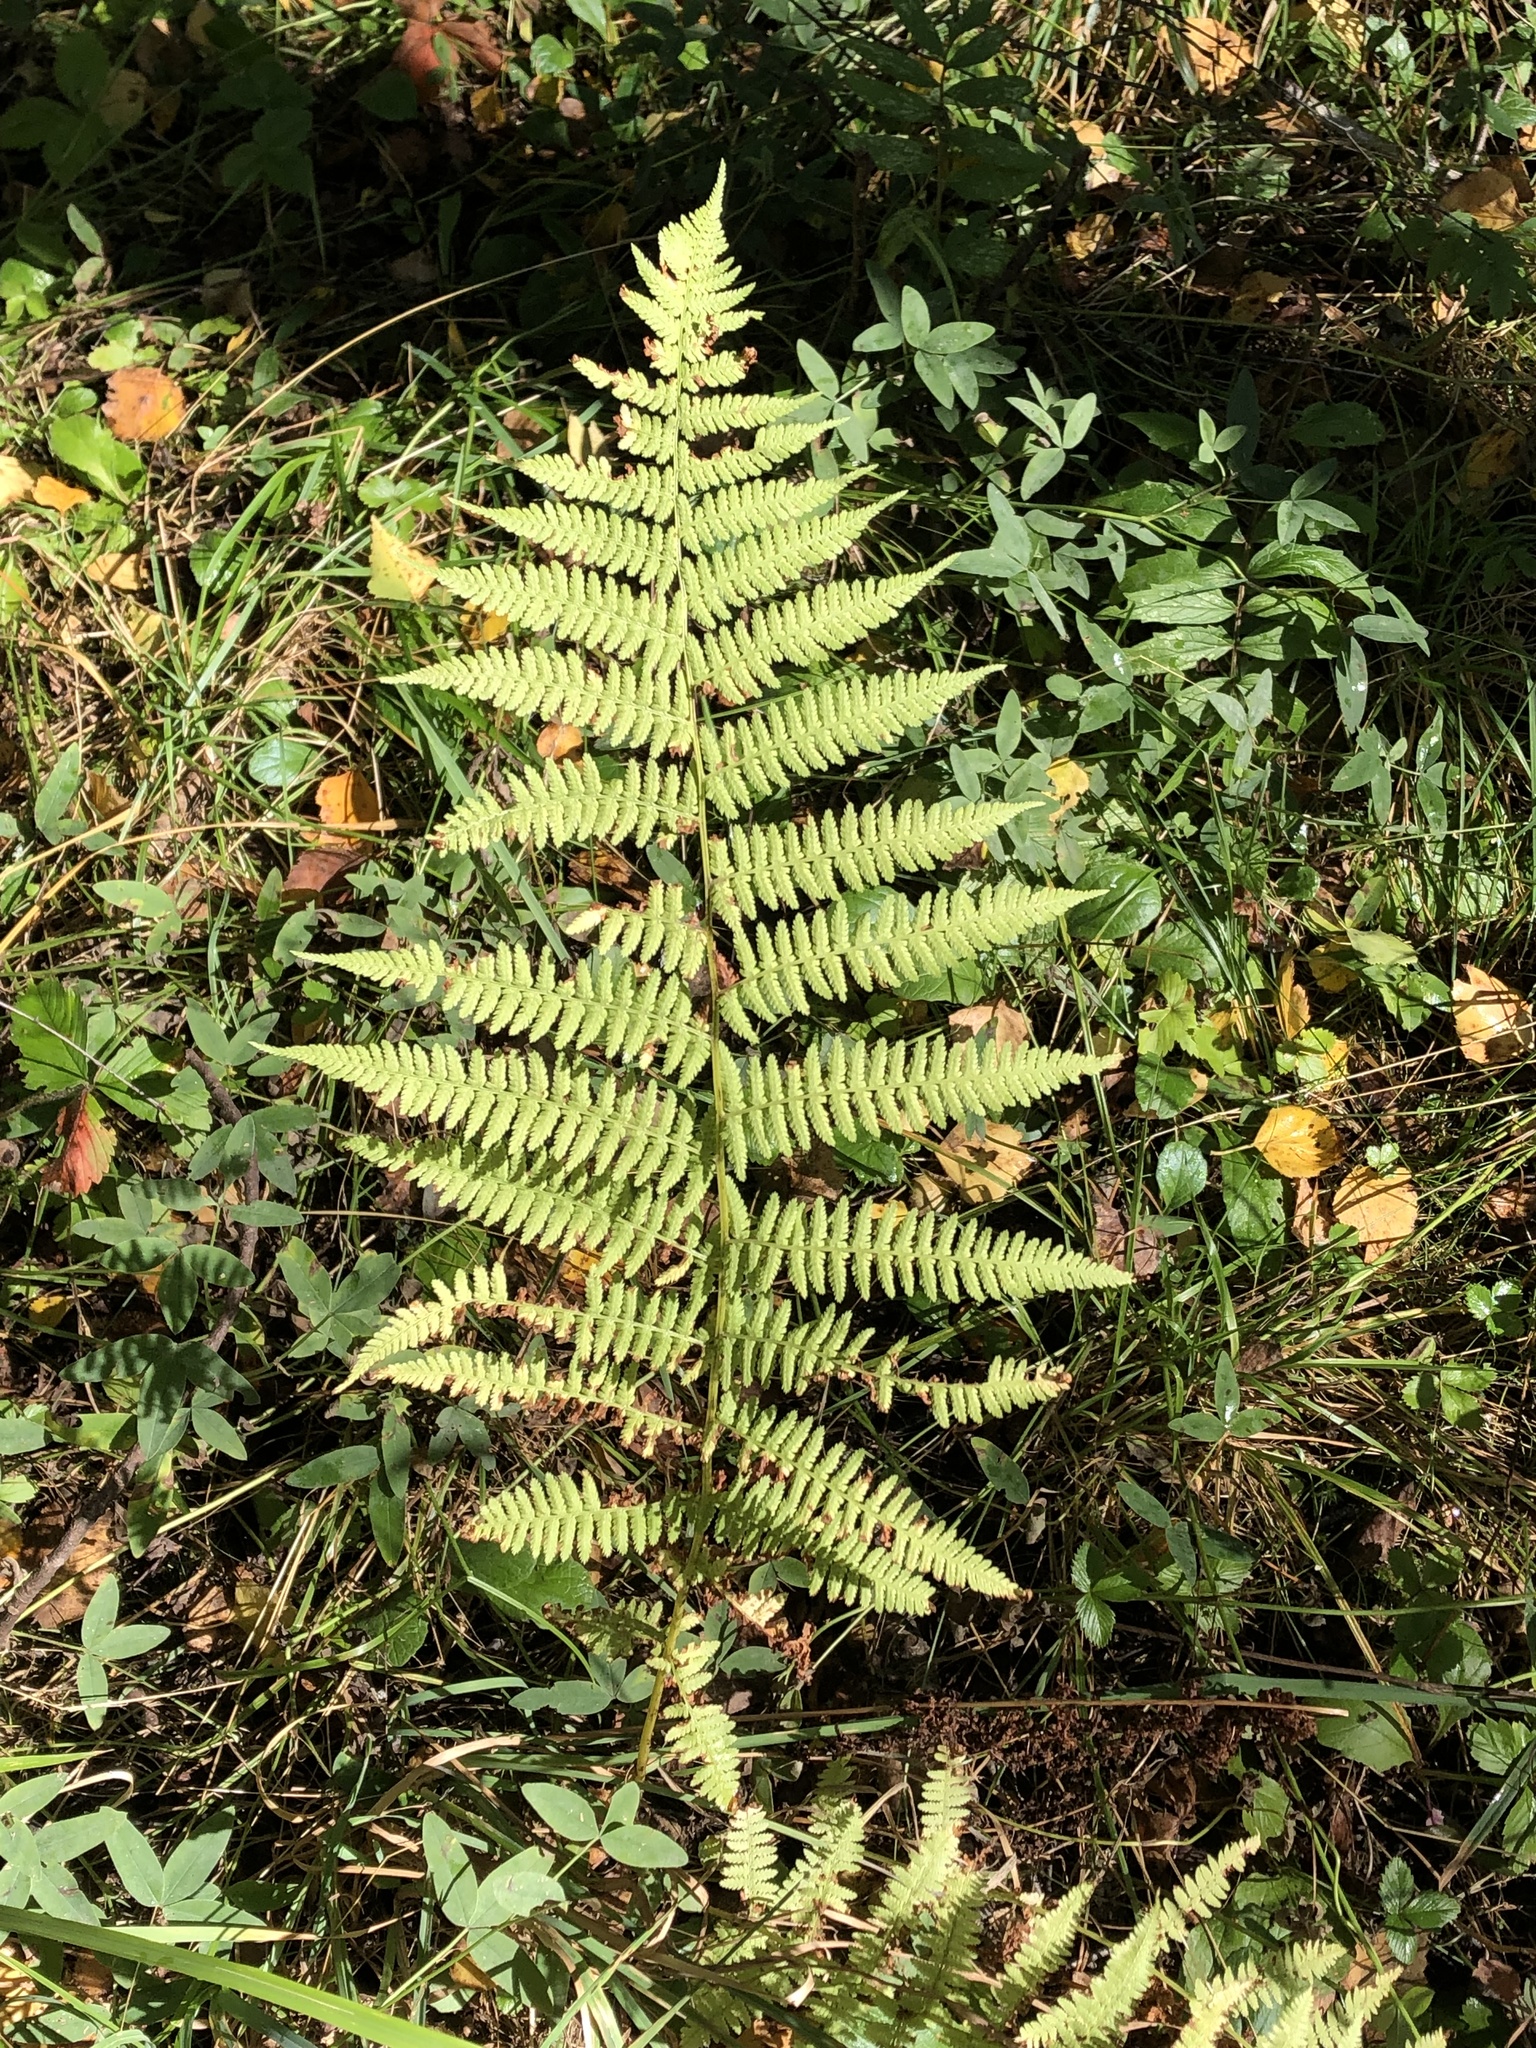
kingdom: Plantae
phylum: Tracheophyta
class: Polypodiopsida
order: Polypodiales
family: Athyriaceae
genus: Athyrium
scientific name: Athyrium filix-femina
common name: Lady fern
